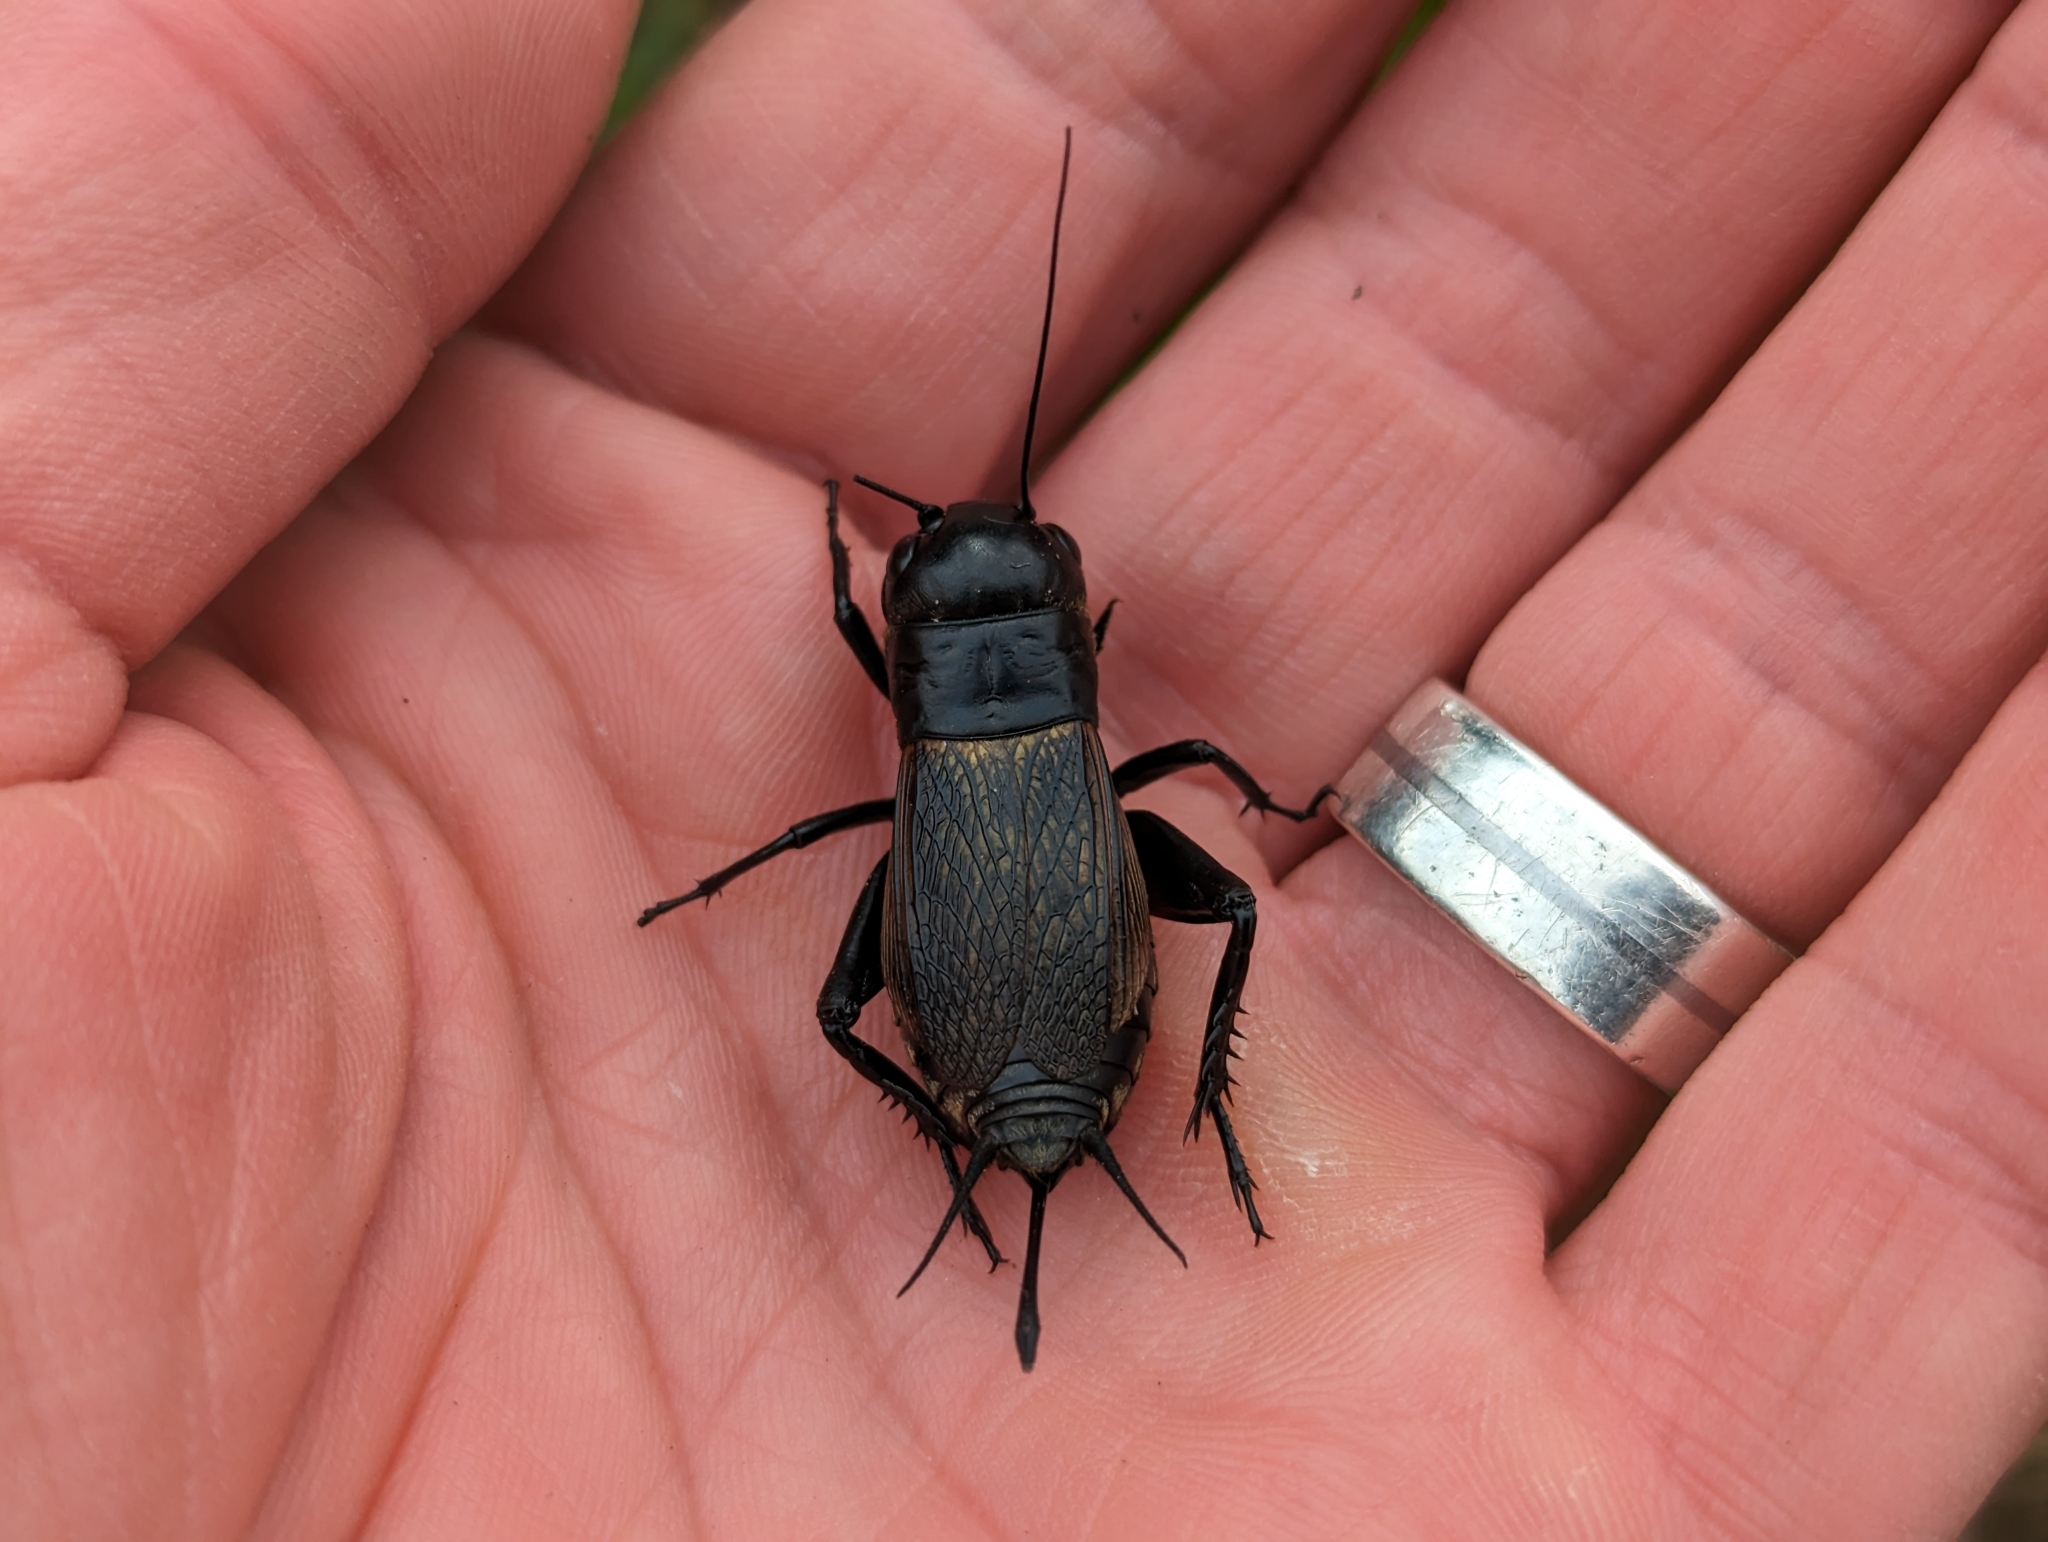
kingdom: Animalia
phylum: Arthropoda
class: Insecta
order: Orthoptera
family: Gryllidae
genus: Gryllus
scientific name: Gryllus campestris
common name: Field cricket
